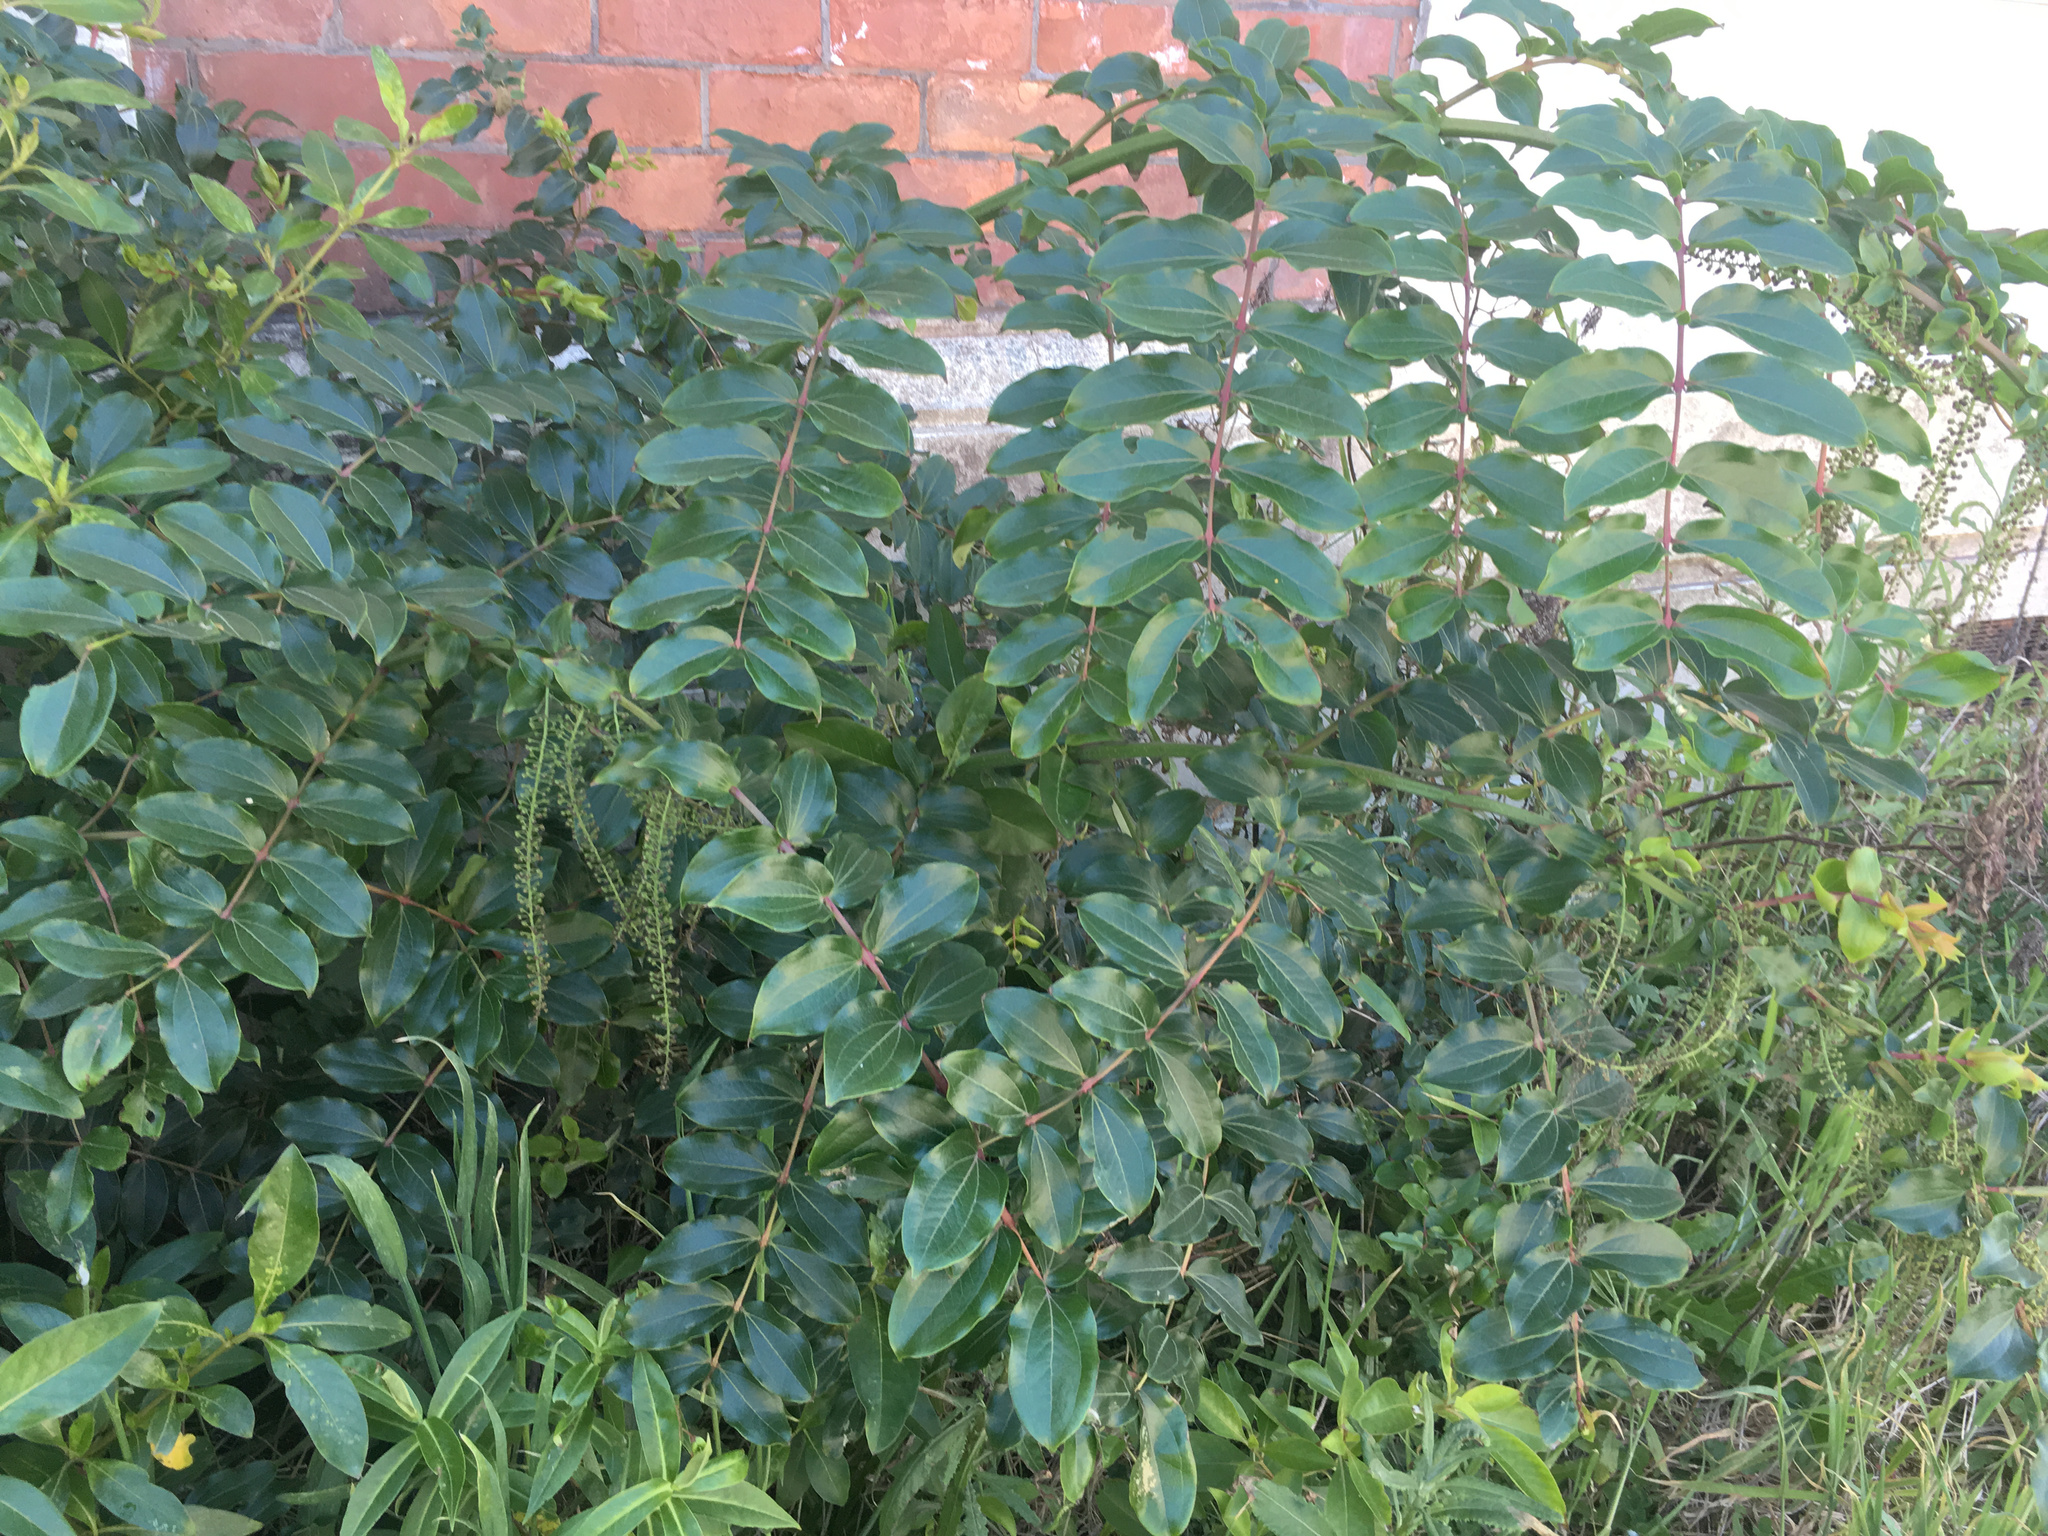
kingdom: Plantae
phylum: Tracheophyta
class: Magnoliopsida
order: Cucurbitales
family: Coriariaceae
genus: Coriaria
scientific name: Coriaria arborea
